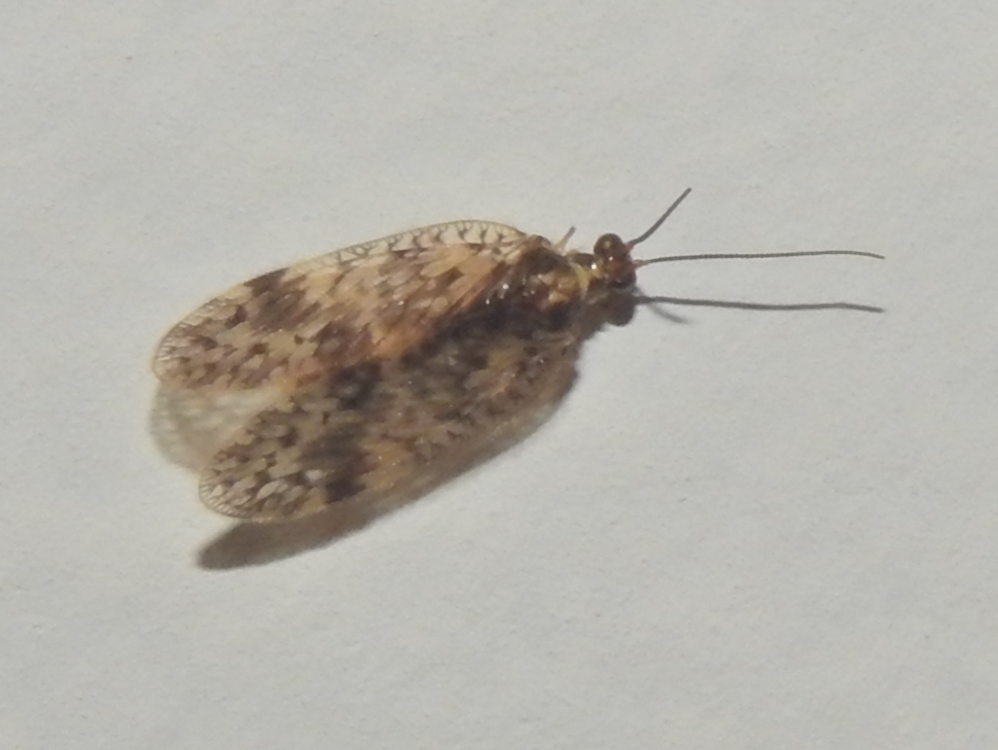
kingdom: Animalia
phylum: Arthropoda
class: Insecta
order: Neuroptera
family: Hemerobiidae
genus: Carobius
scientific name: Carobius pulchellus
